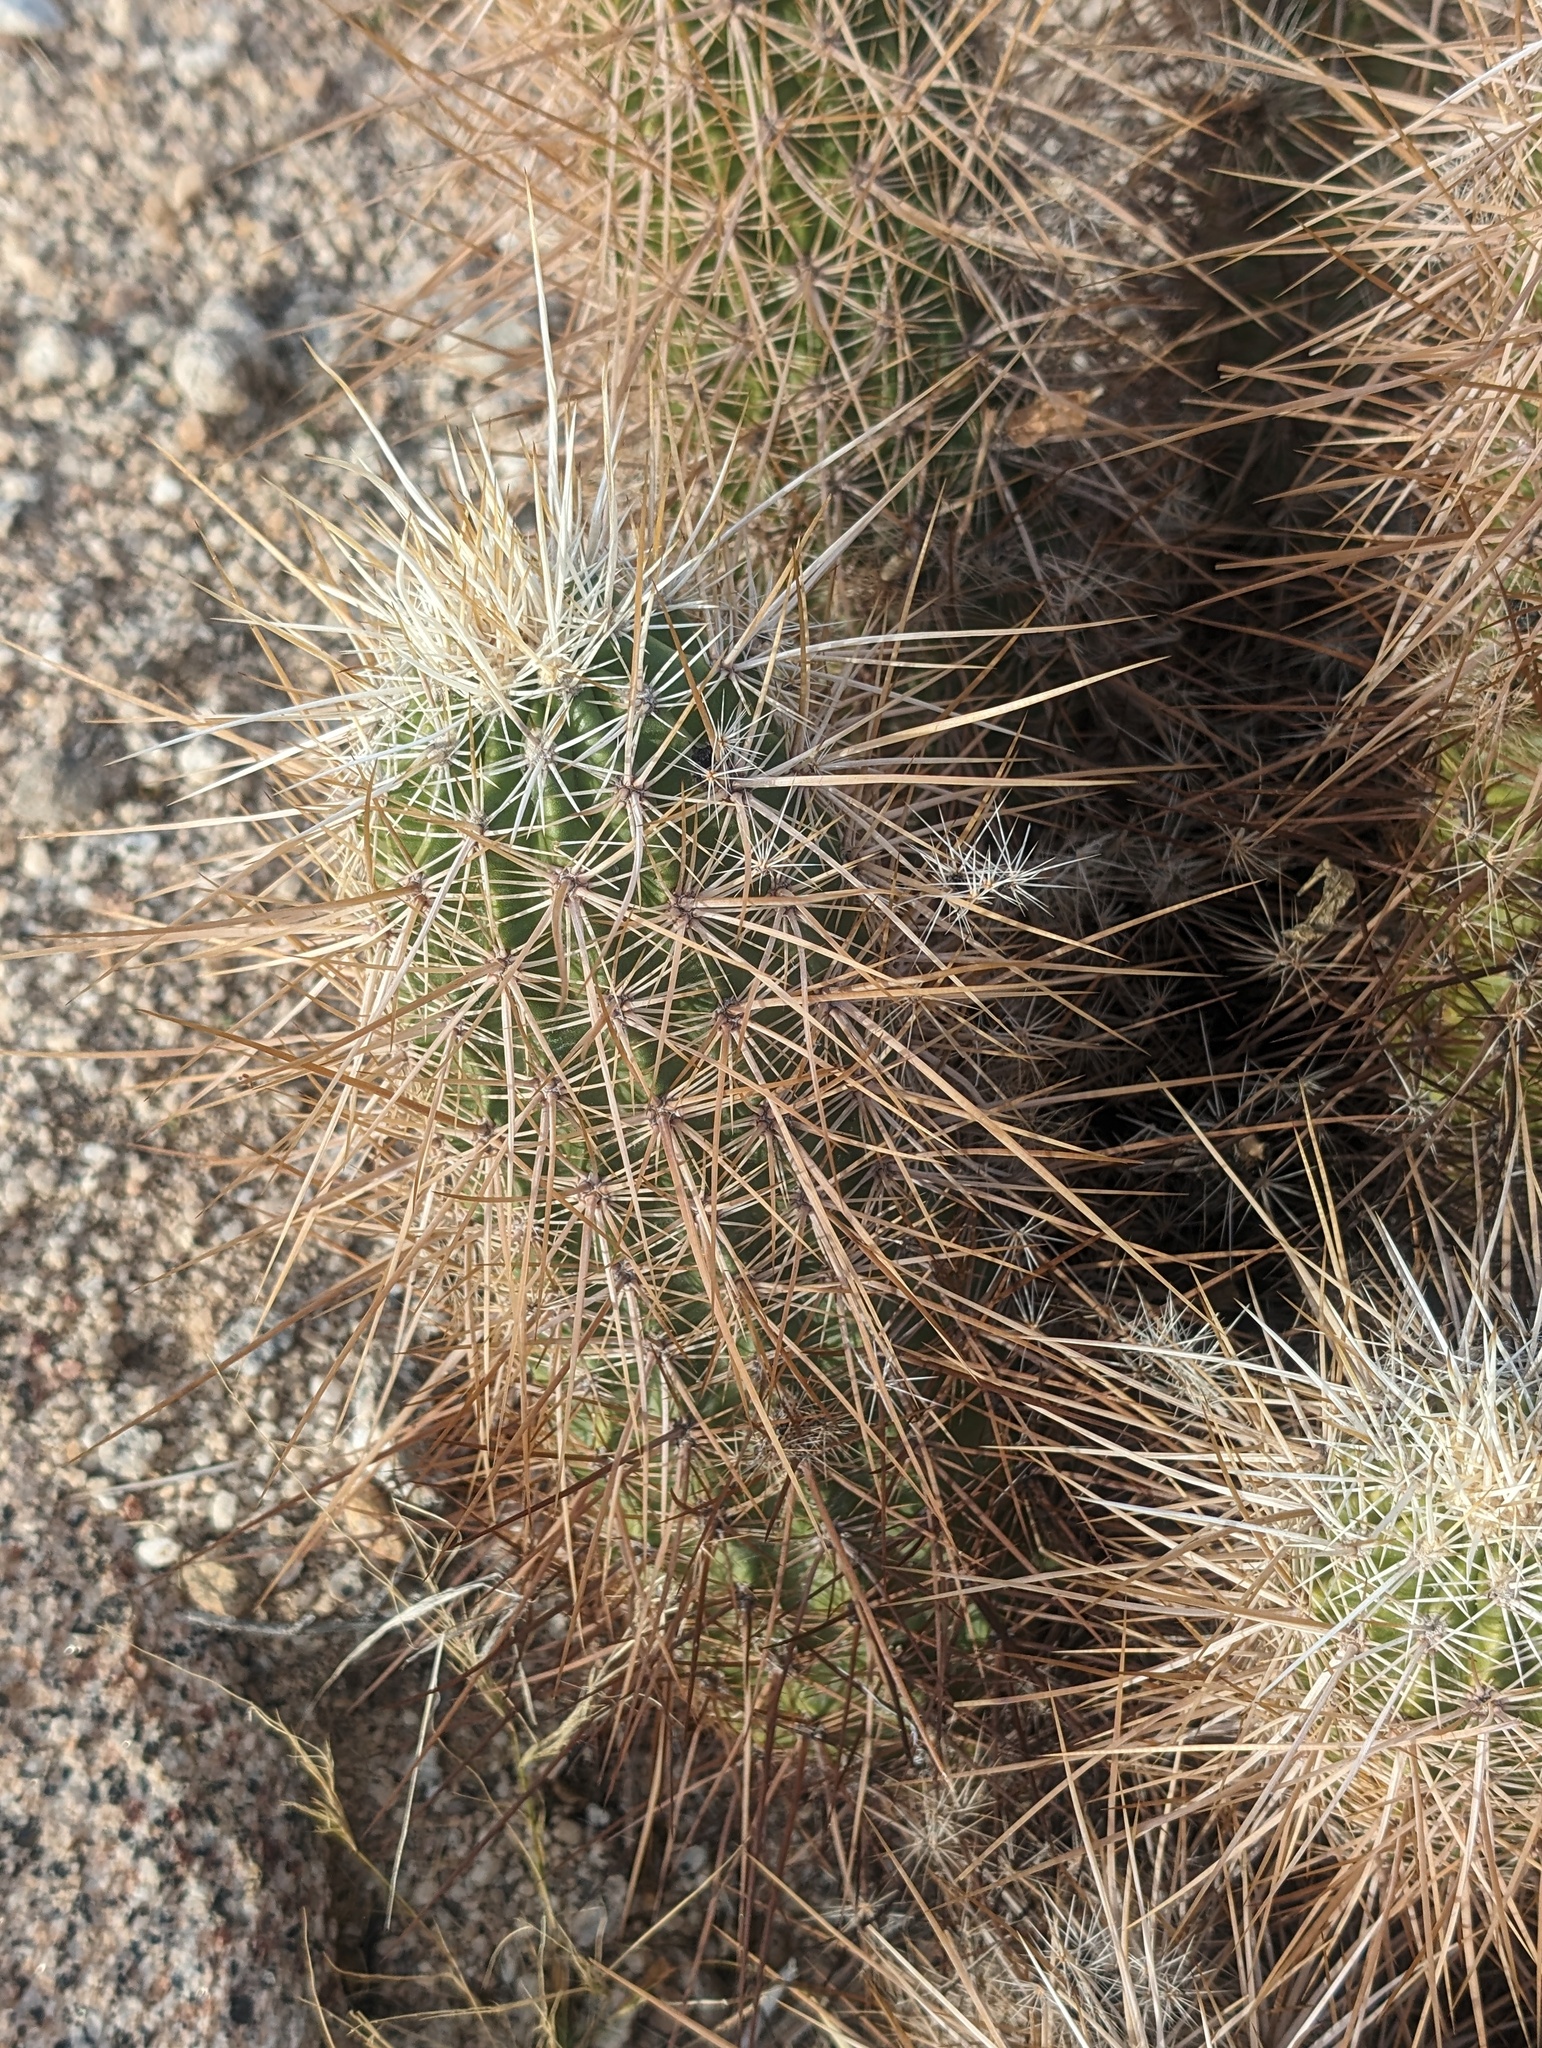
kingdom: Plantae
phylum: Tracheophyta
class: Magnoliopsida
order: Caryophyllales
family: Cactaceae
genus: Echinocereus
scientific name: Echinocereus engelmannii
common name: Engelmann's hedgehog cactus
